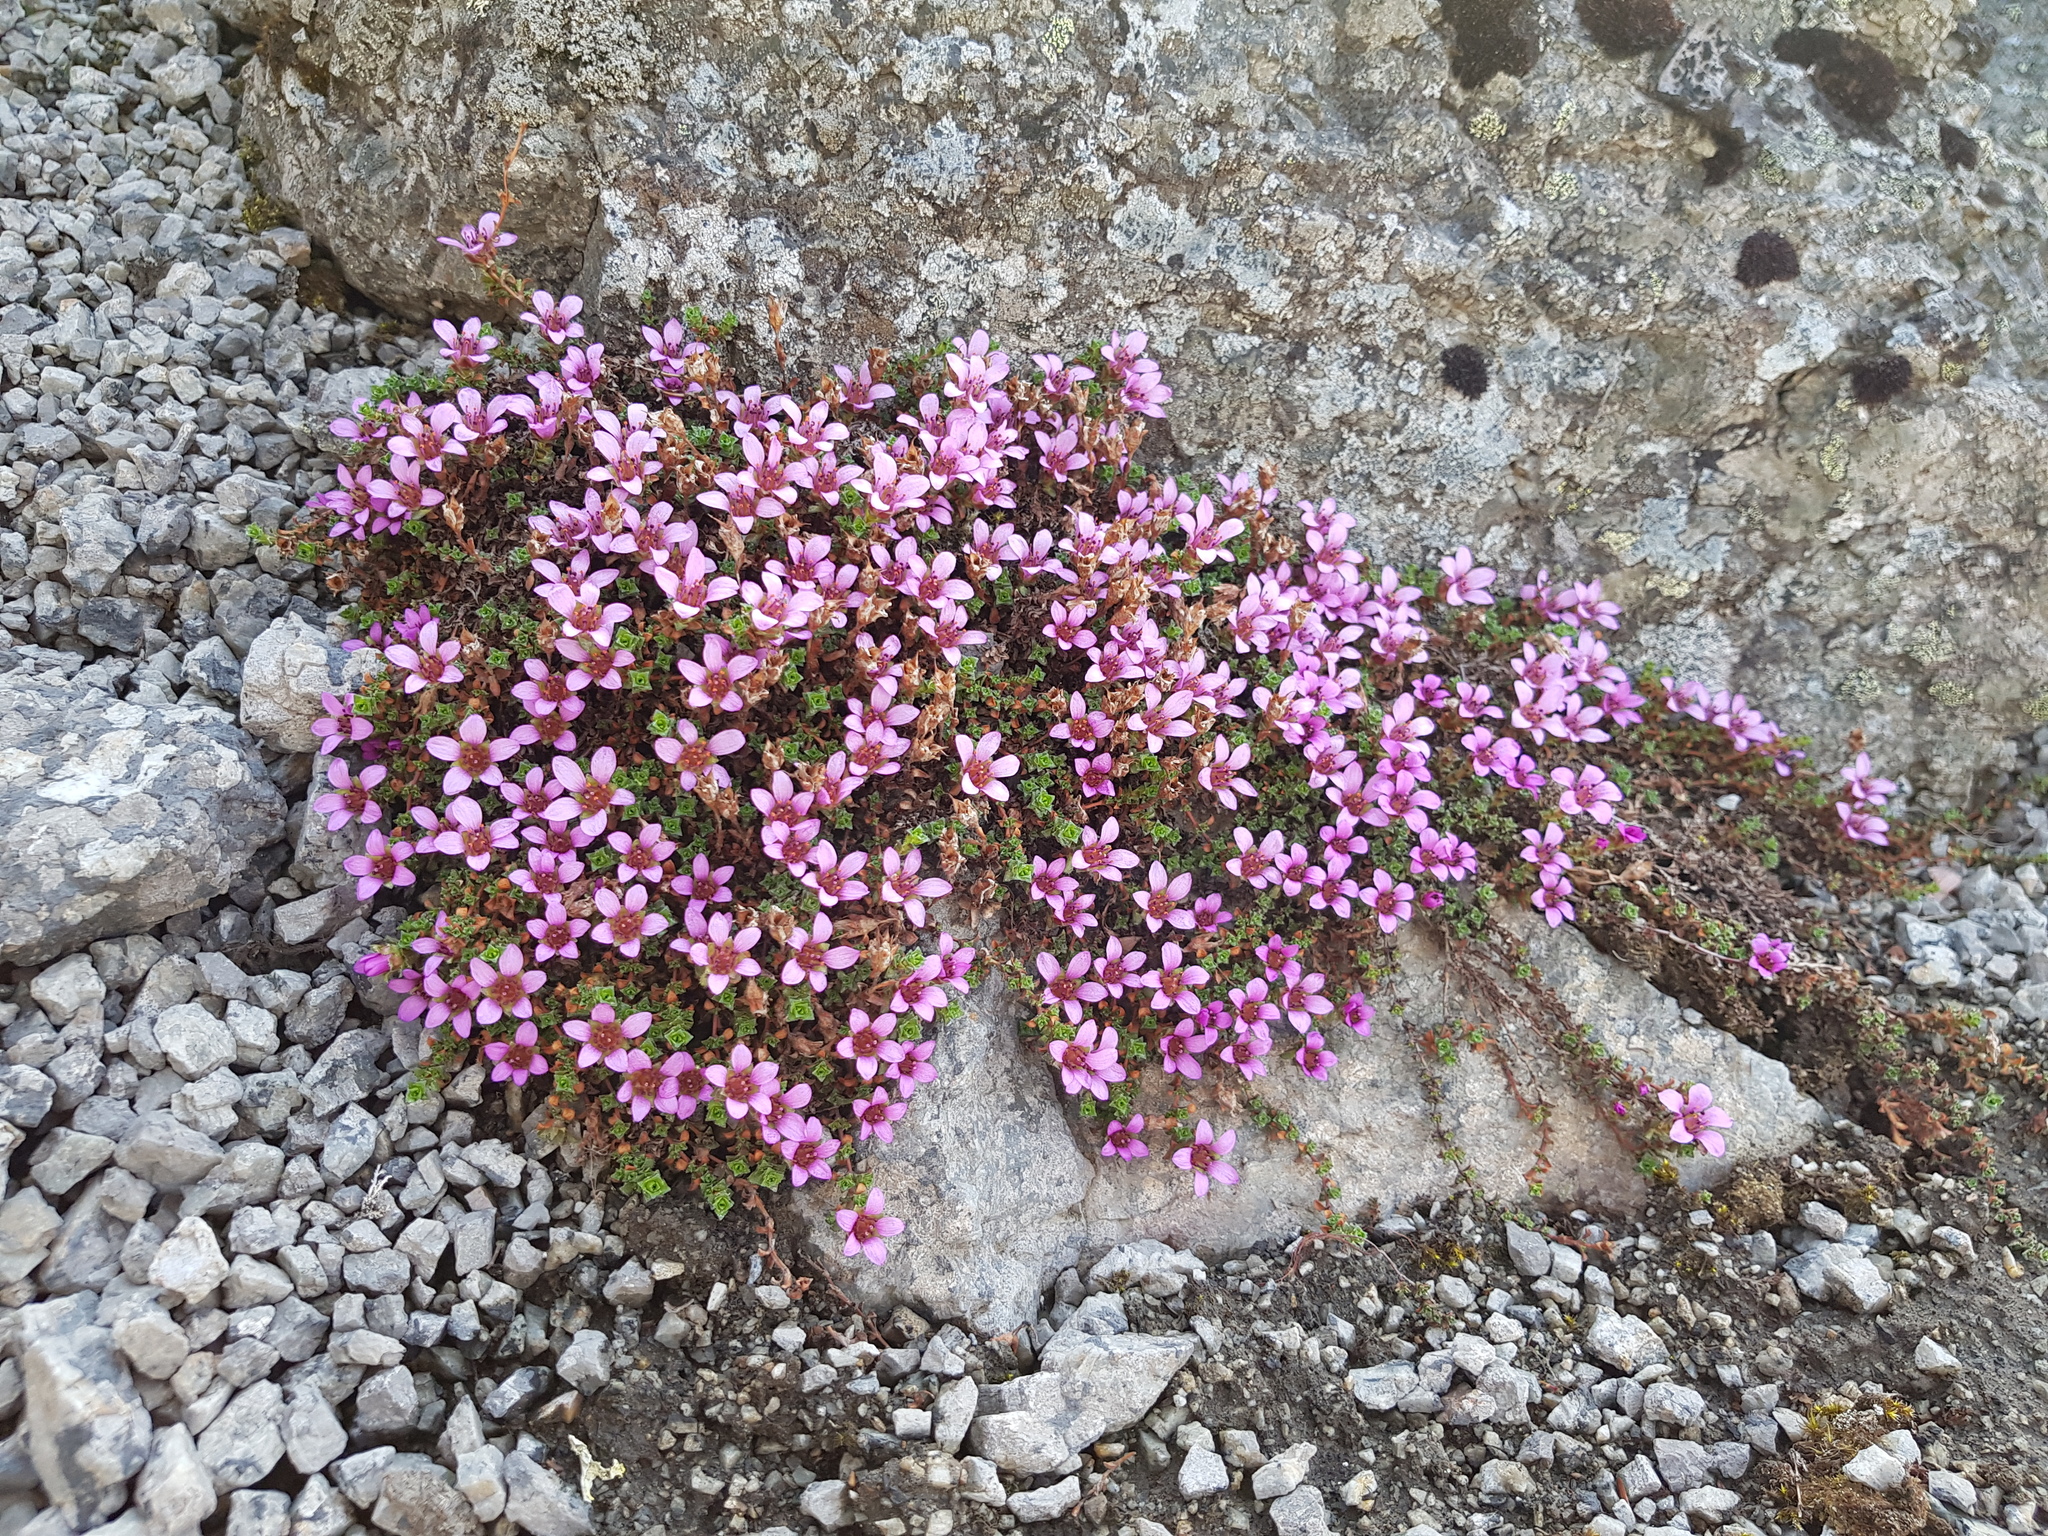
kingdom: Plantae
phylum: Tracheophyta
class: Magnoliopsida
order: Saxifragales
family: Saxifragaceae
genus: Saxifraga
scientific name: Saxifraga oppositifolia
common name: Purple saxifrage
